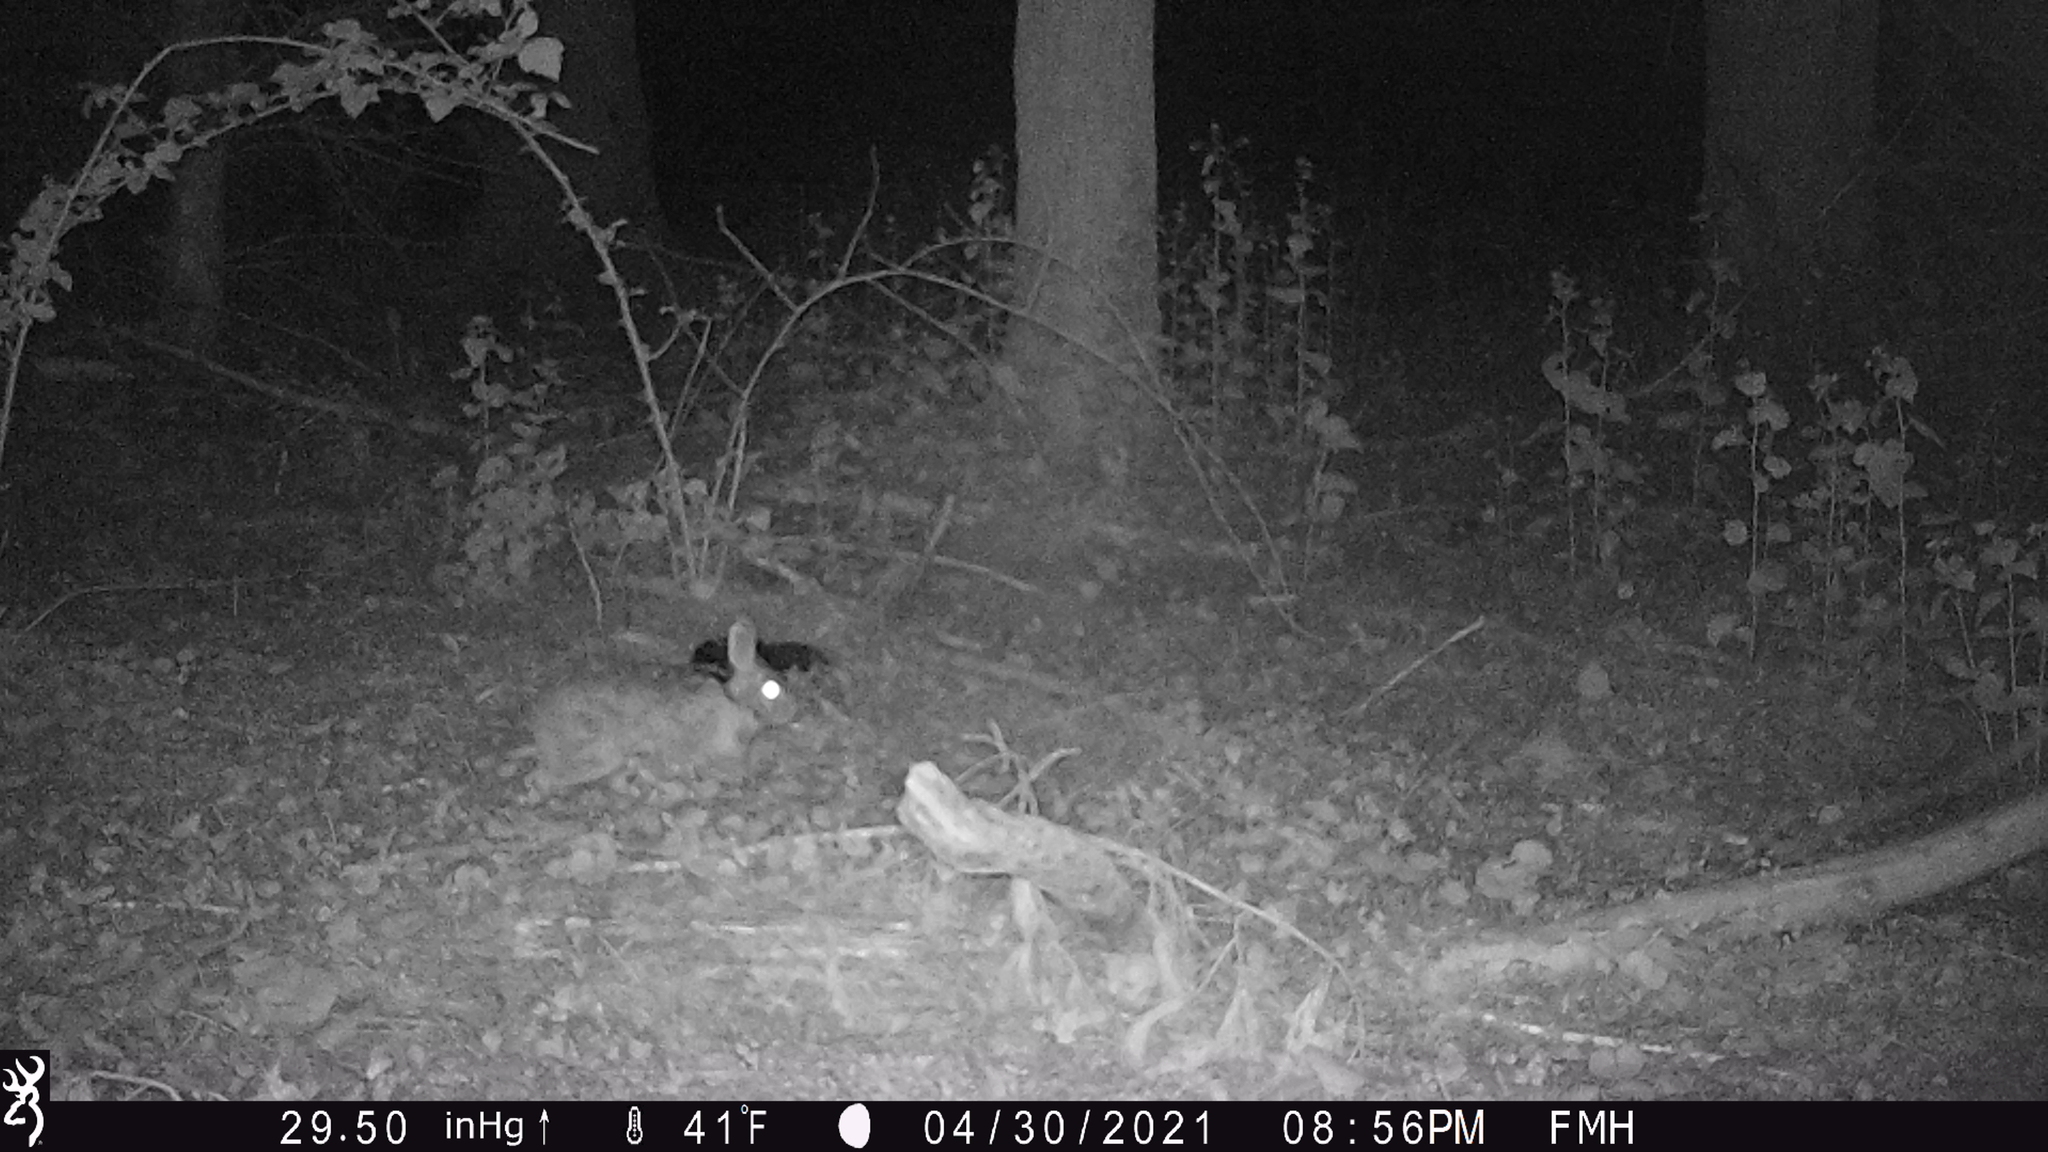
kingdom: Animalia
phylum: Chordata
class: Mammalia
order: Lagomorpha
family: Leporidae
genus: Sylvilagus
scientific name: Sylvilagus floridanus
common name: Eastern cottontail
